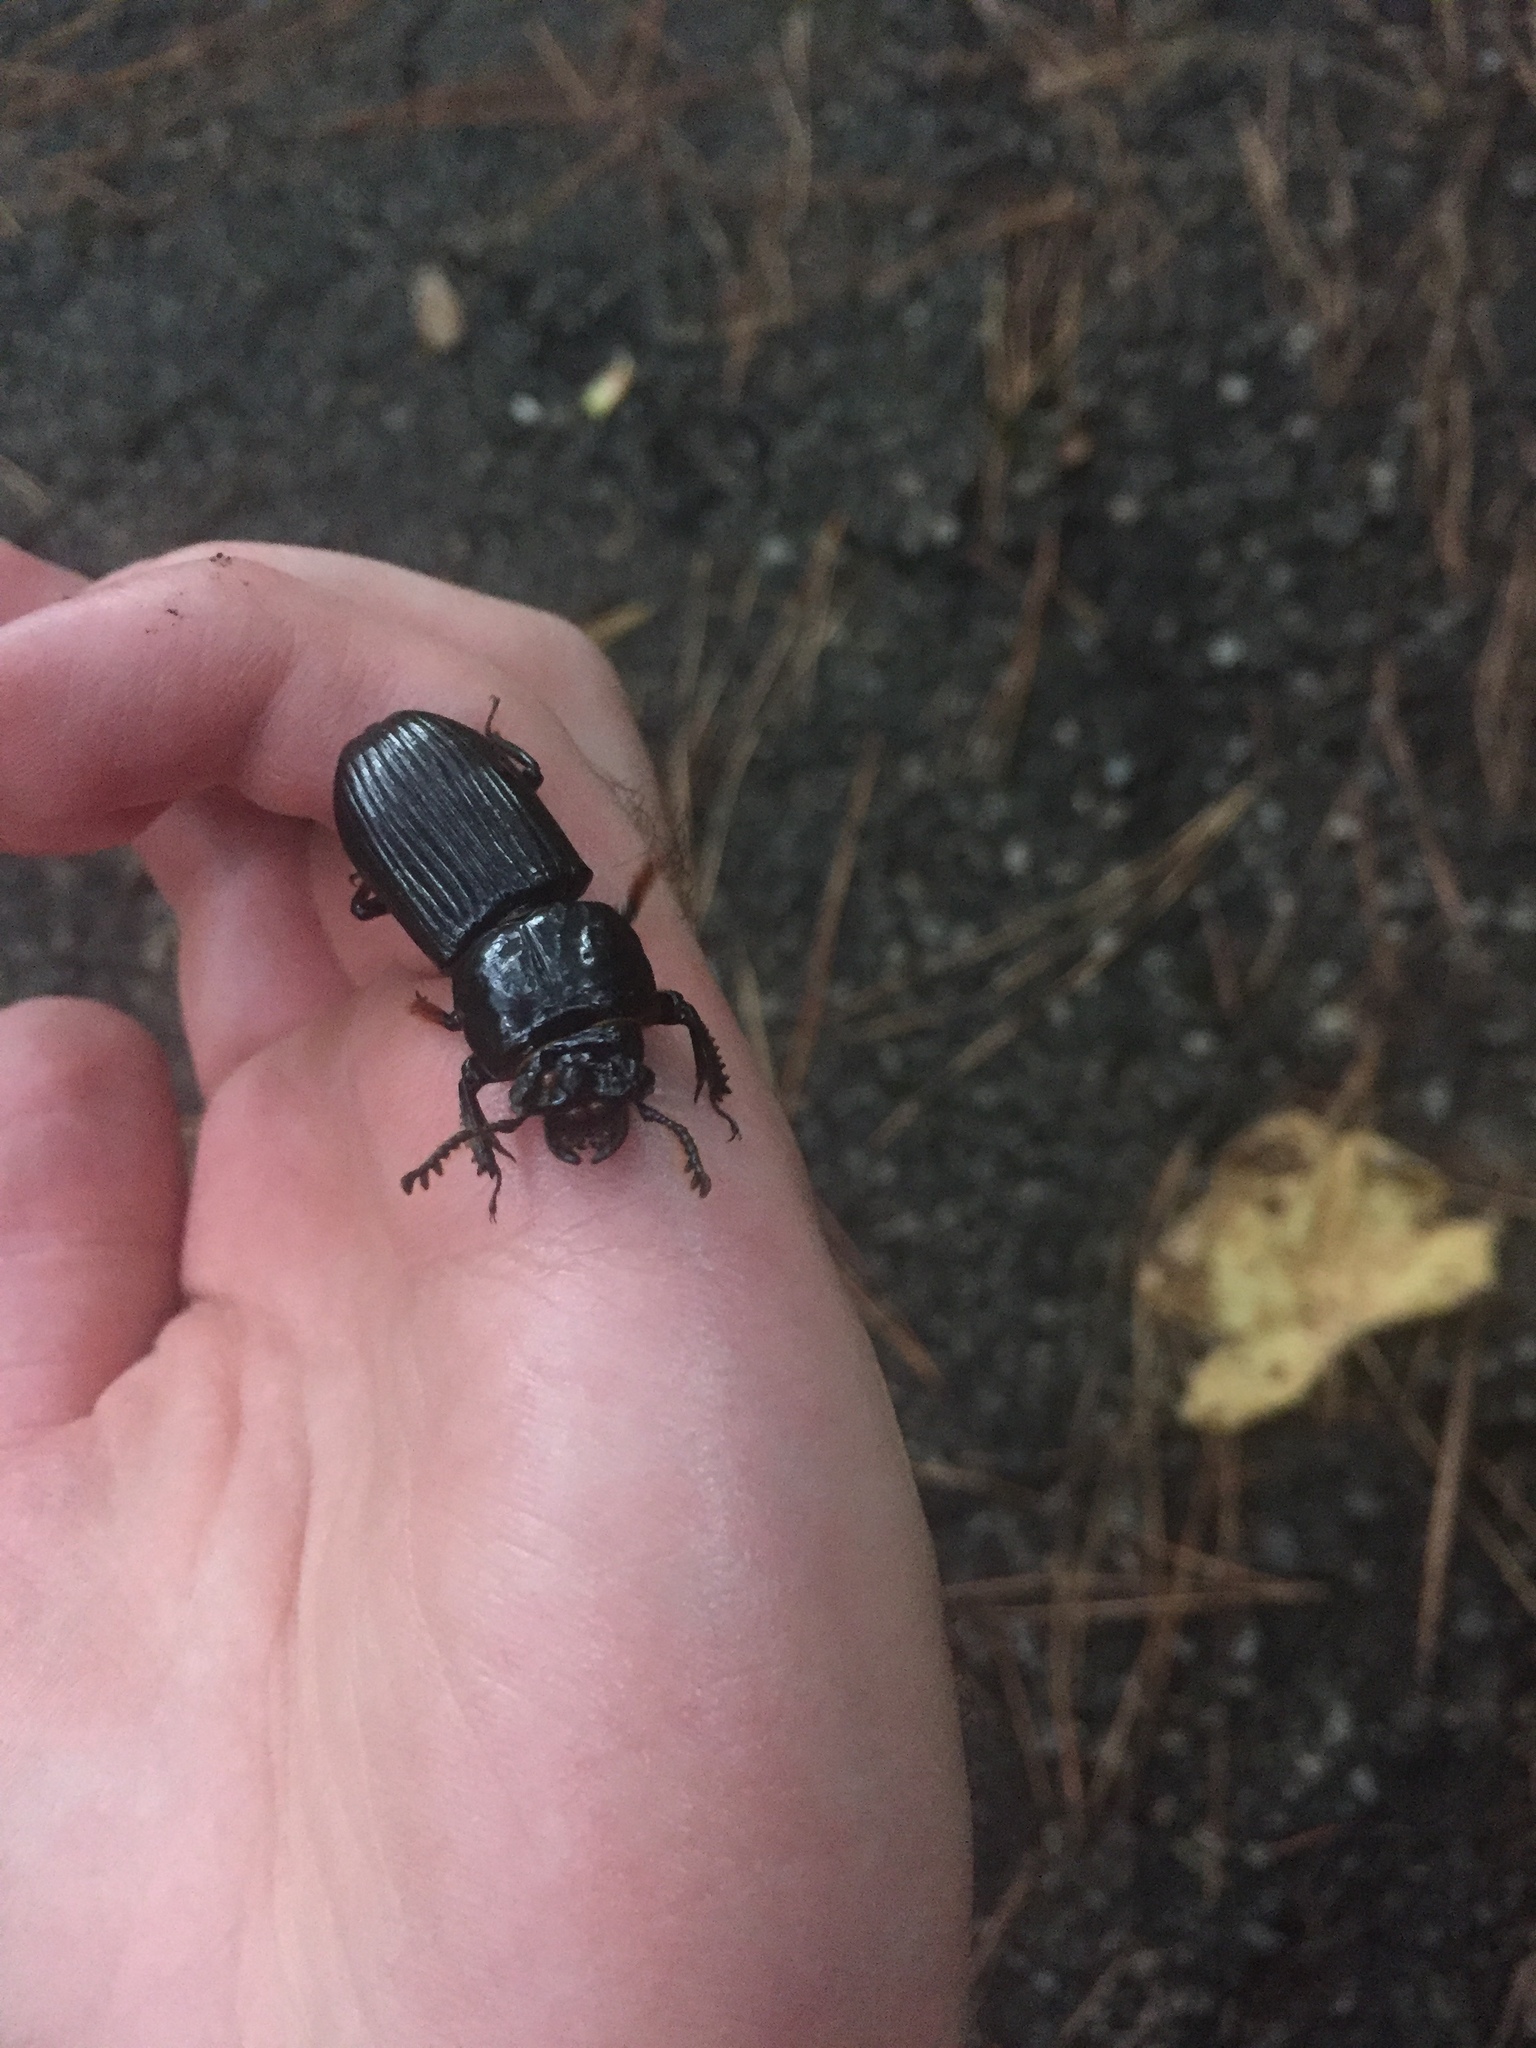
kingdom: Animalia
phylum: Arthropoda
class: Insecta
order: Coleoptera
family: Passalidae
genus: Odontotaenius
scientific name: Odontotaenius disjunctus
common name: Patent leather beetle
